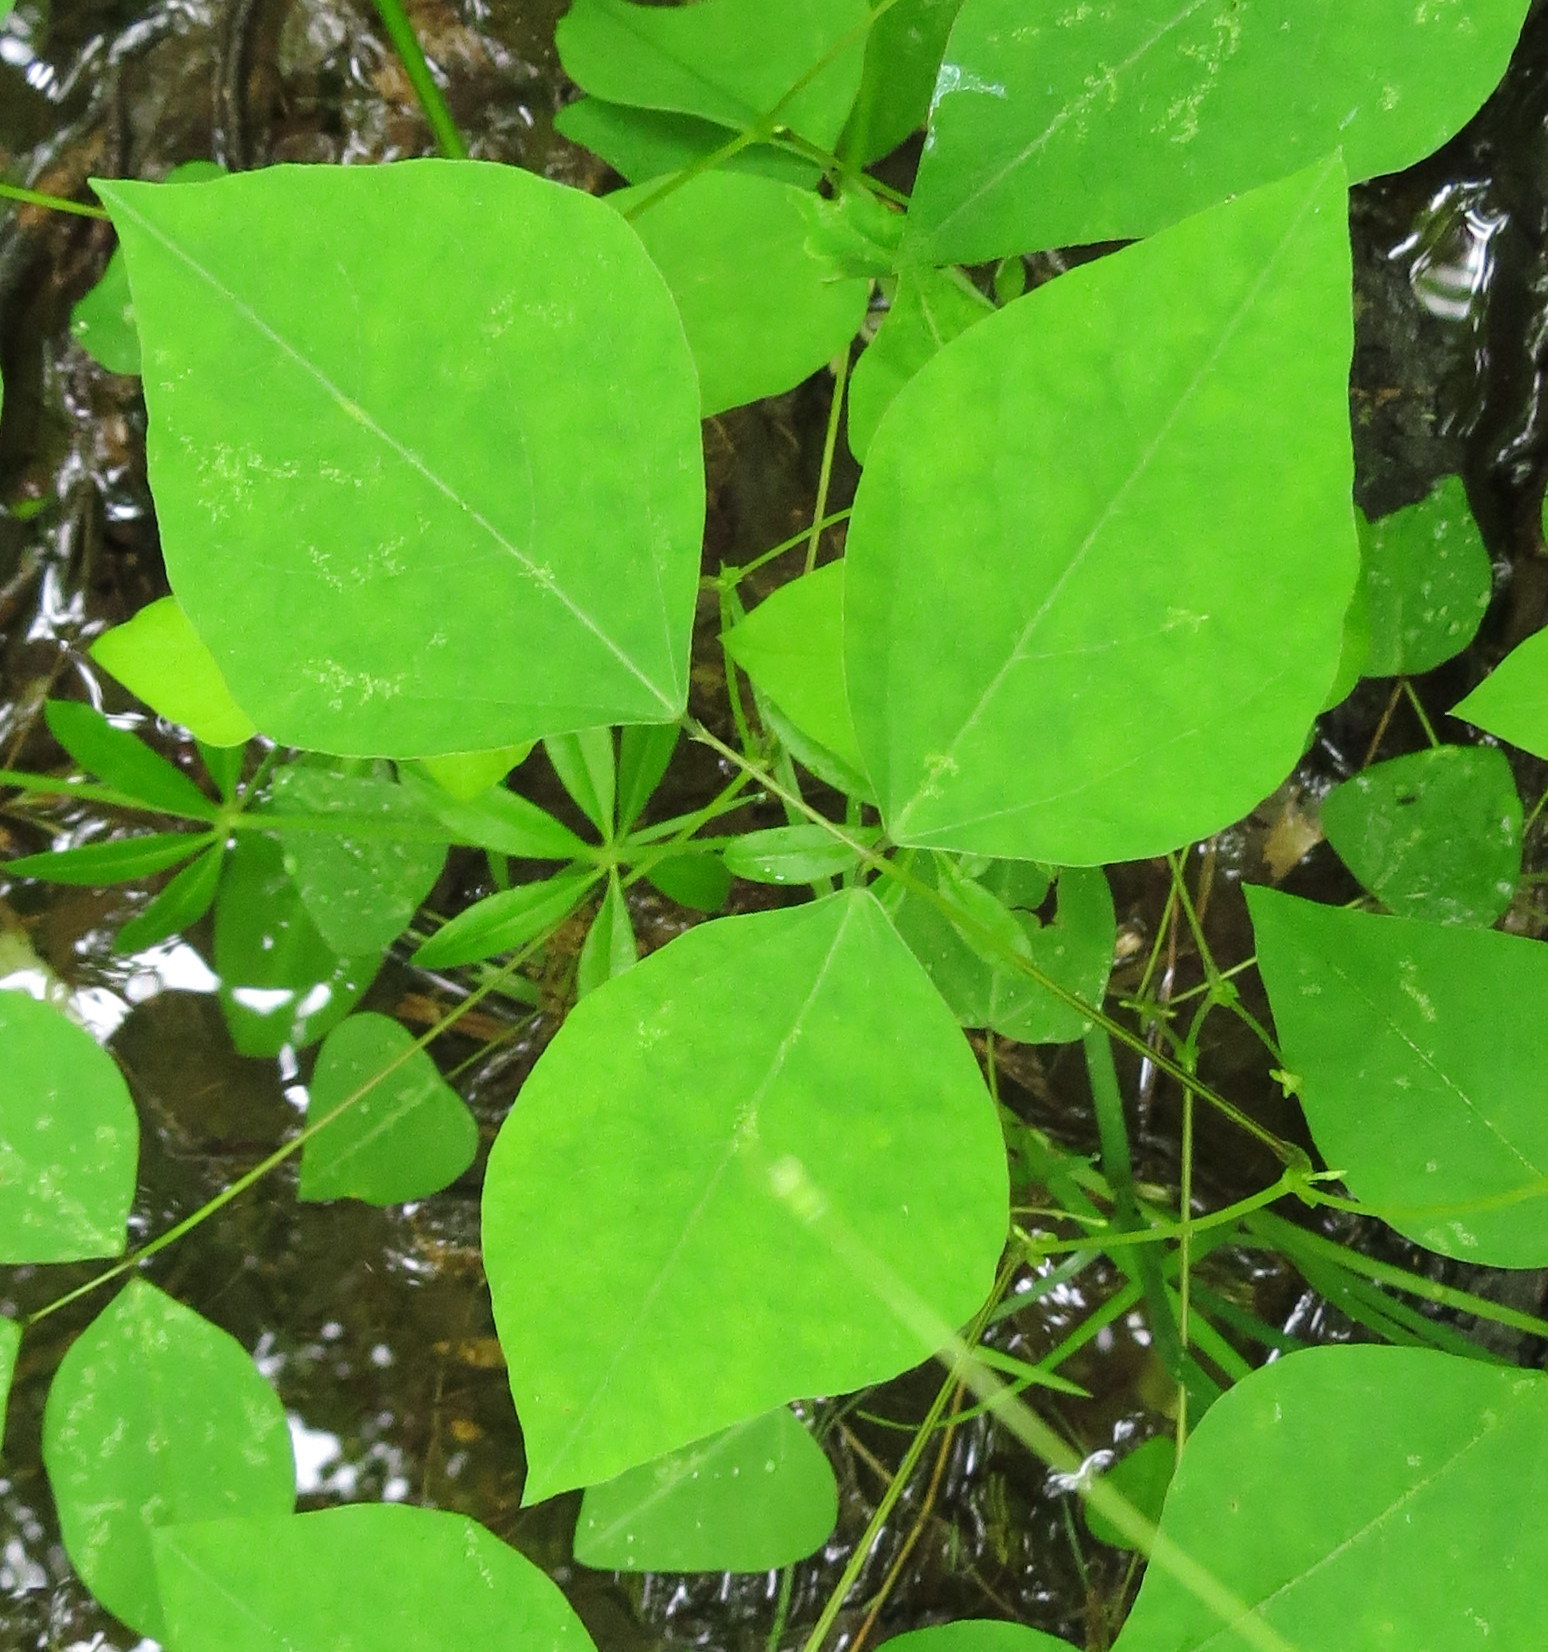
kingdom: Plantae
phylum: Tracheophyta
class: Magnoliopsida
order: Fabales
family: Fabaceae
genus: Amphicarpaea
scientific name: Amphicarpaea bracteata
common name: American hog peanut
